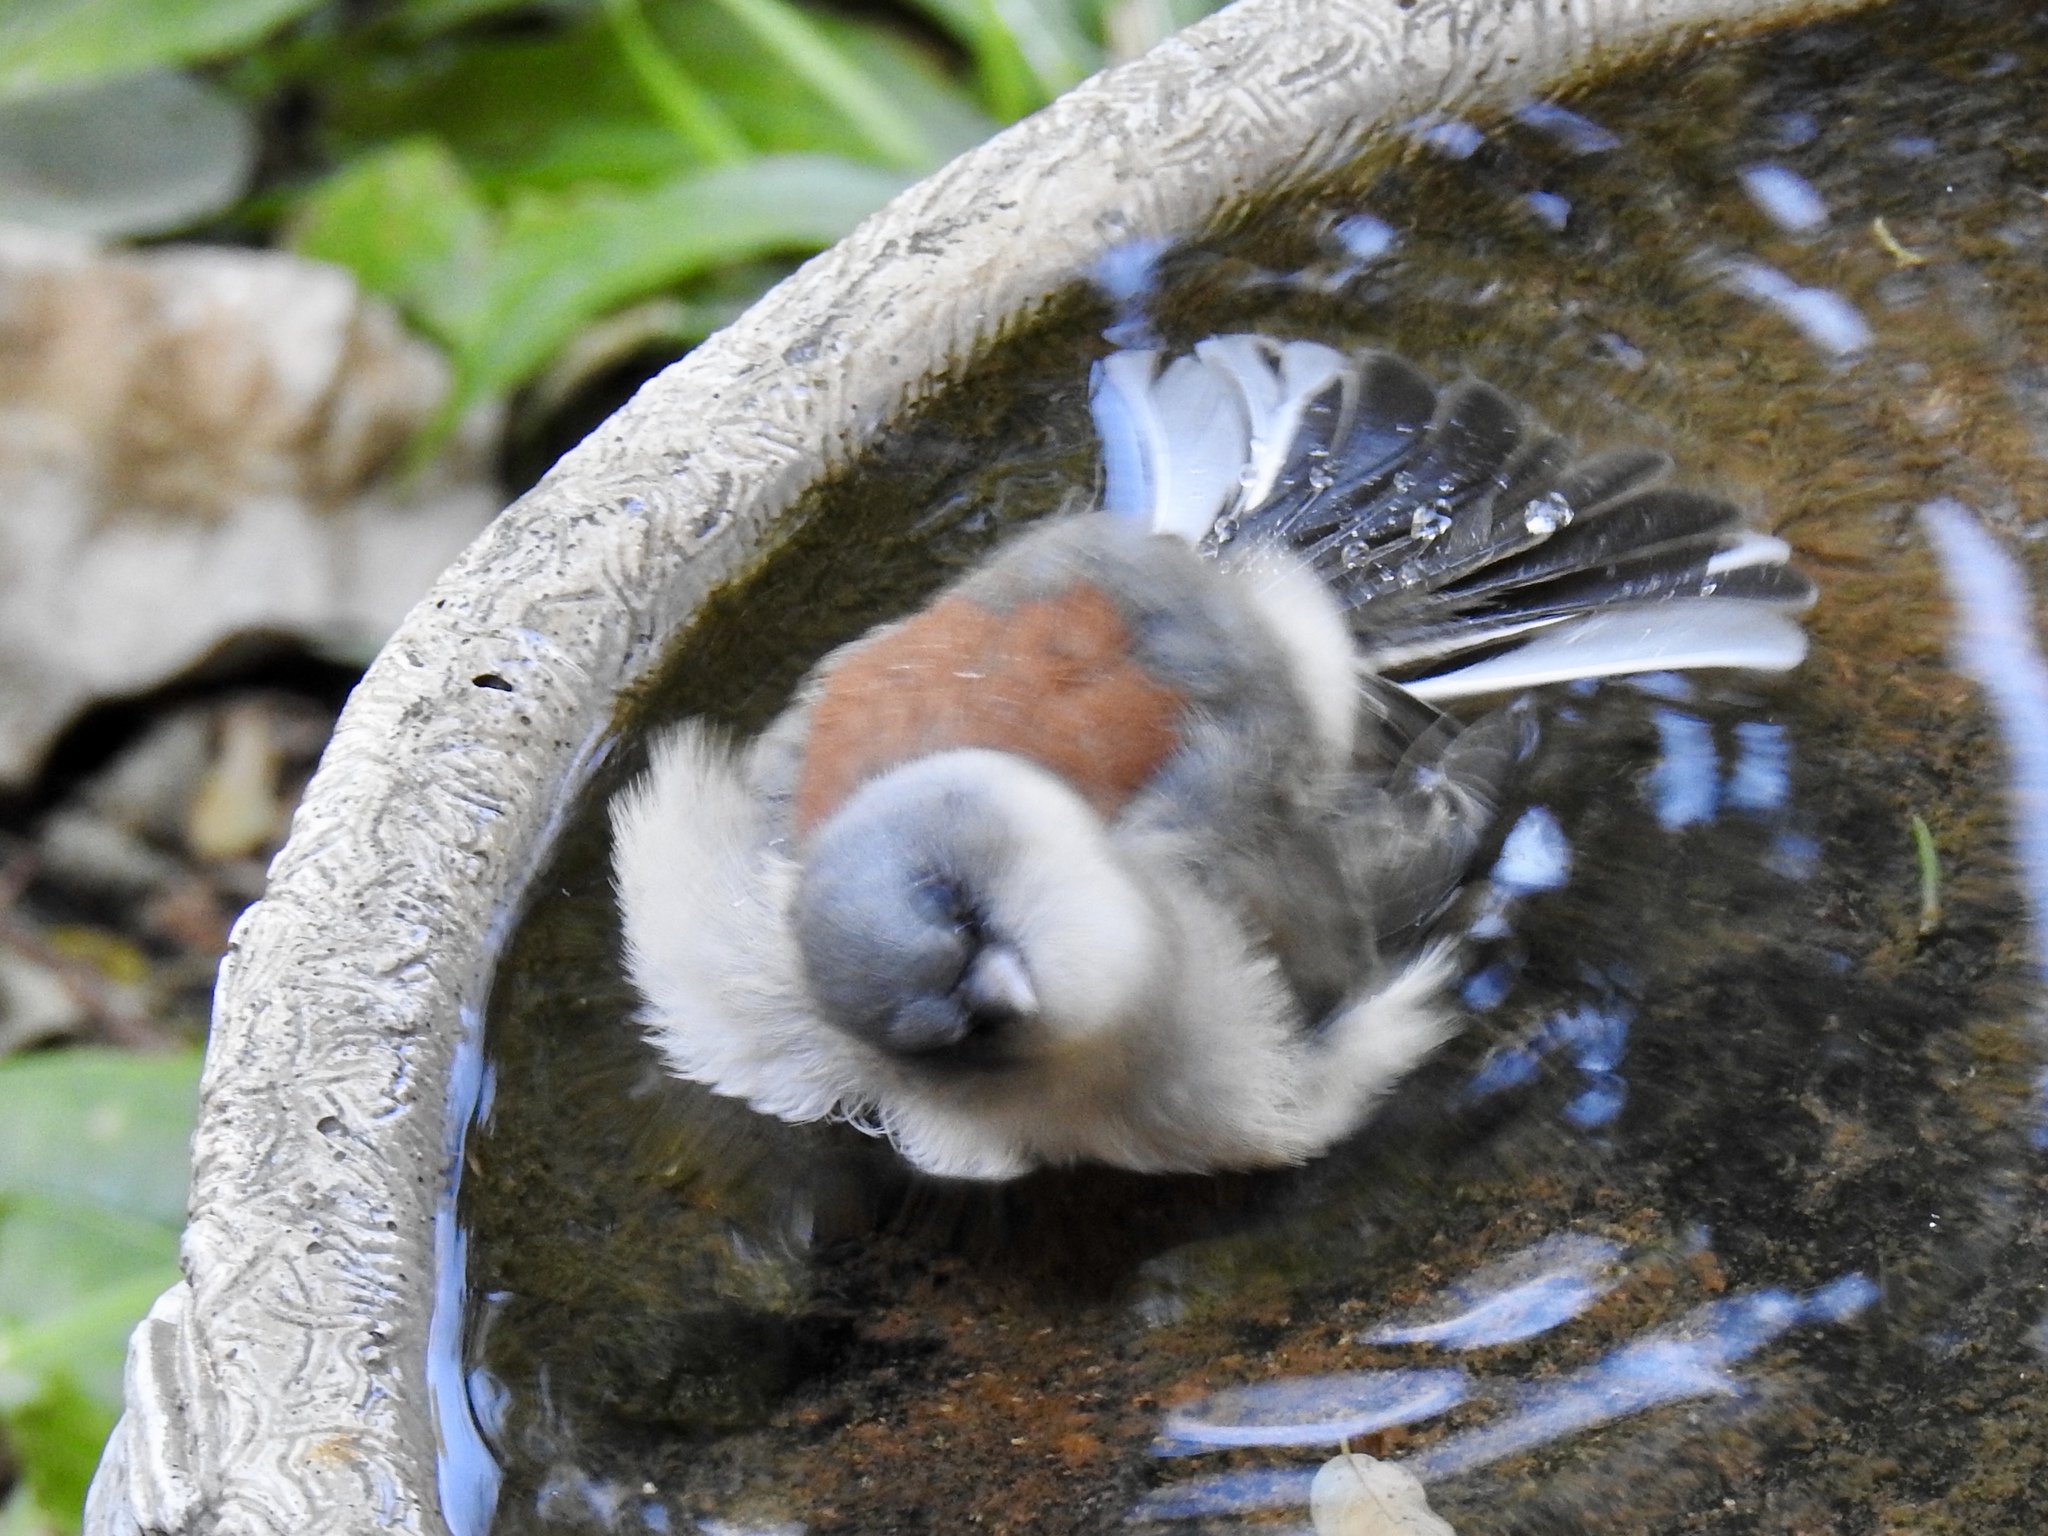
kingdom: Animalia
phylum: Chordata
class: Aves
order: Passeriformes
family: Passerellidae
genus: Junco
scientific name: Junco hyemalis
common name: Dark-eyed junco
